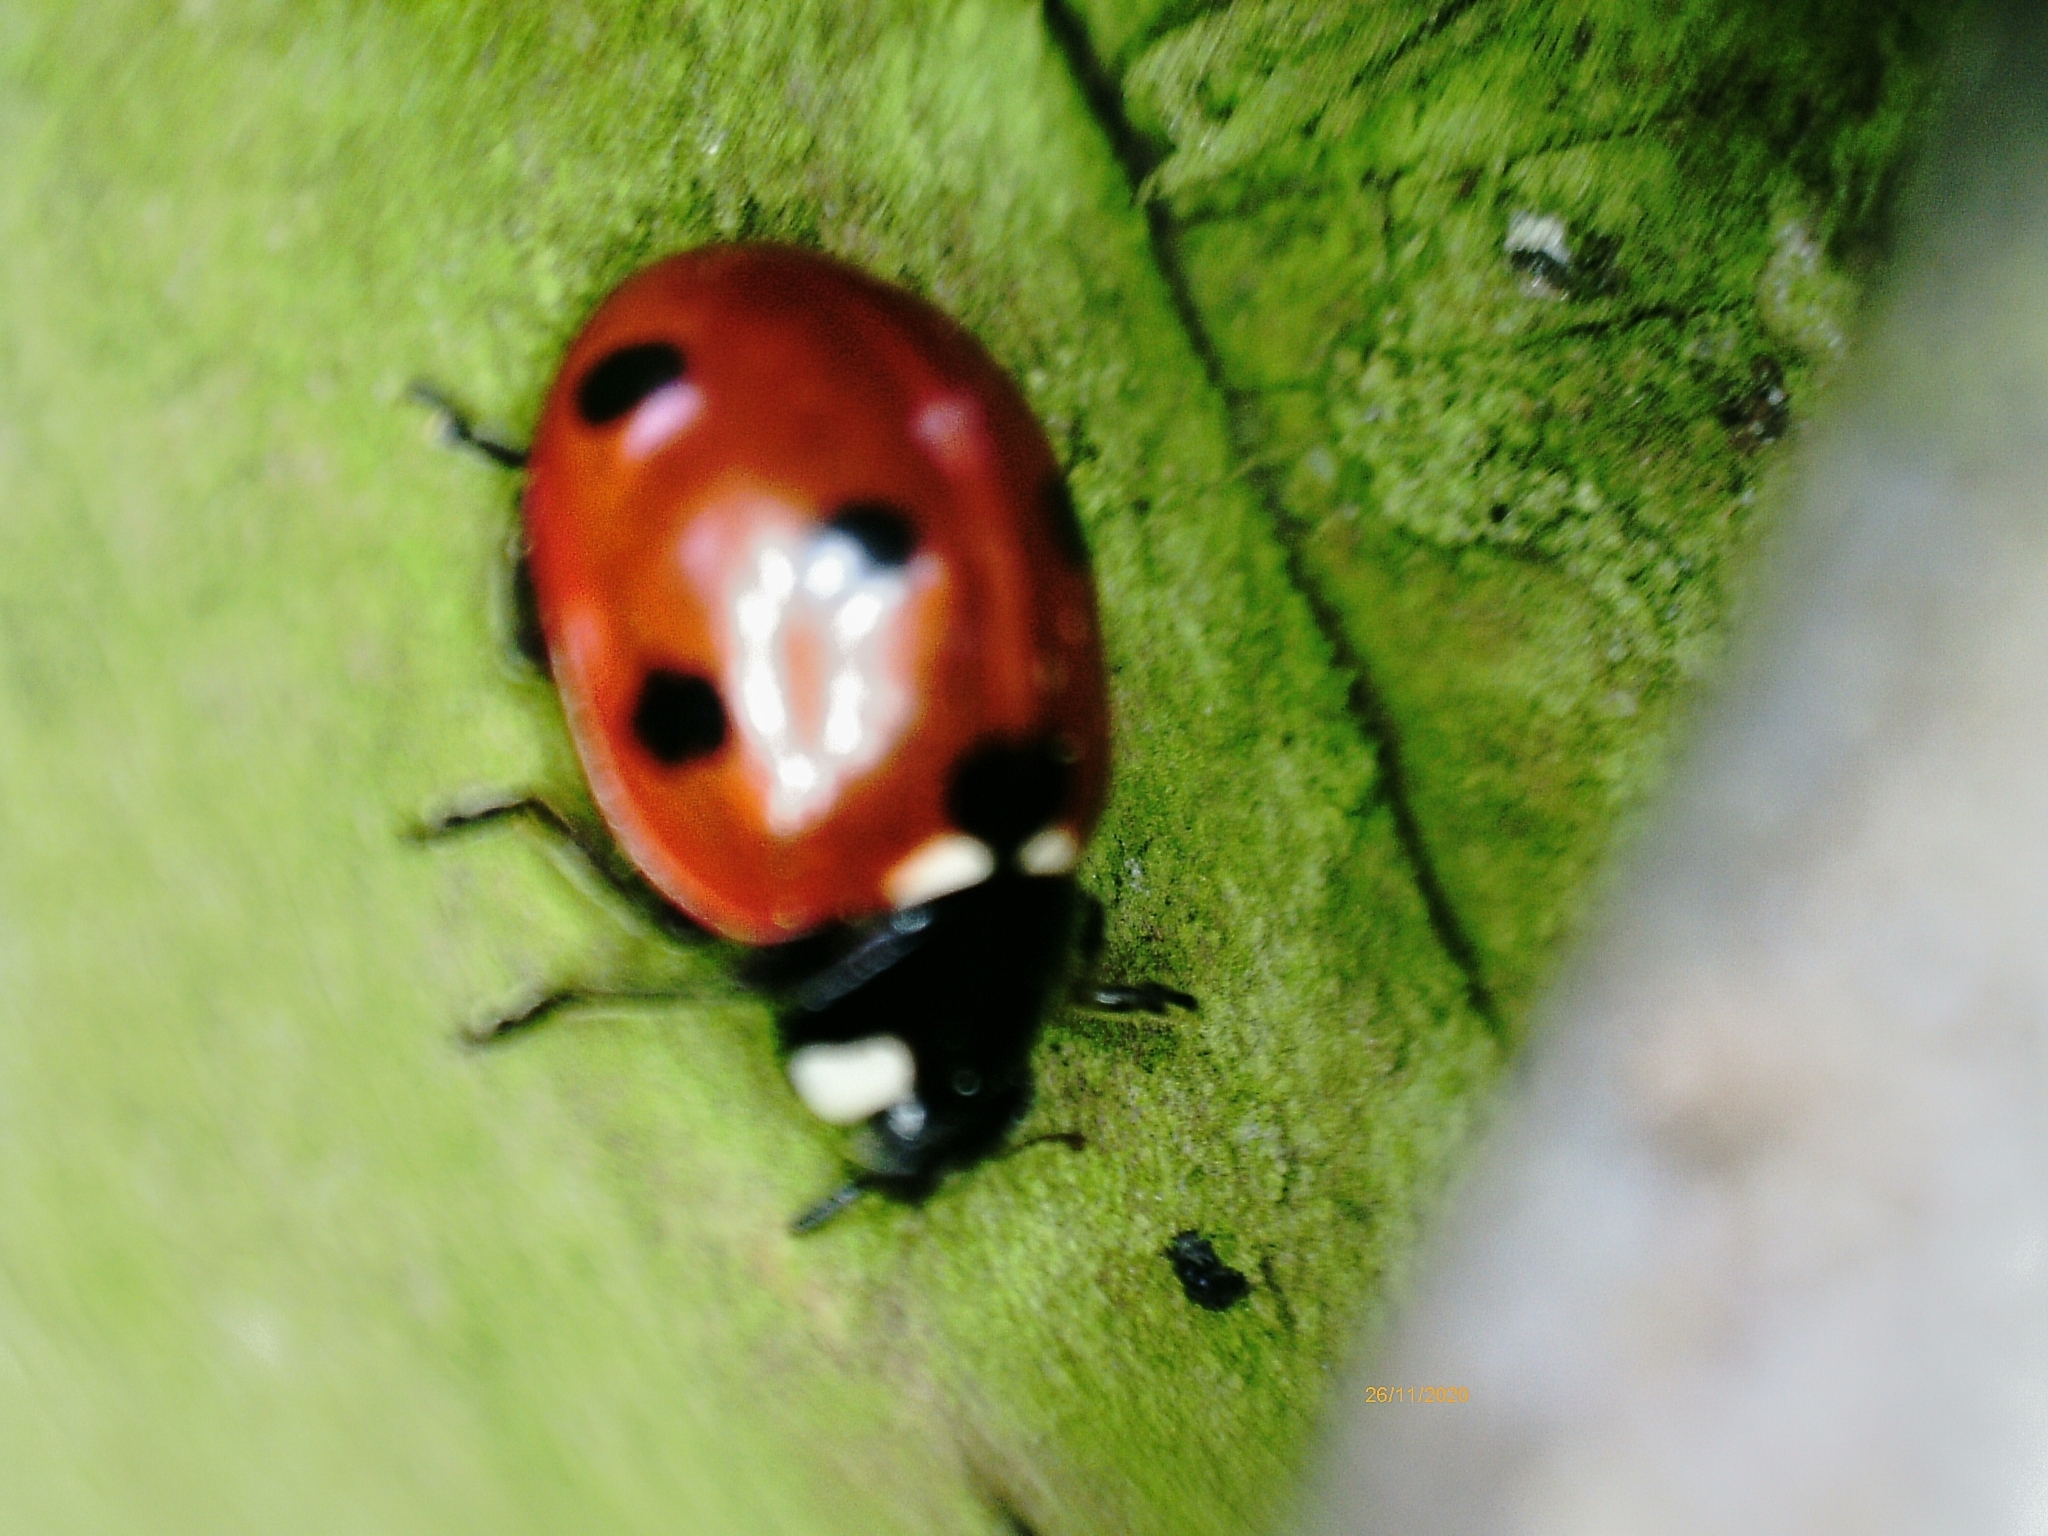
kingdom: Animalia
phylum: Arthropoda
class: Insecta
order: Coleoptera
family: Coccinellidae
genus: Coccinella
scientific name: Coccinella septempunctata
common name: Sevenspotted lady beetle
